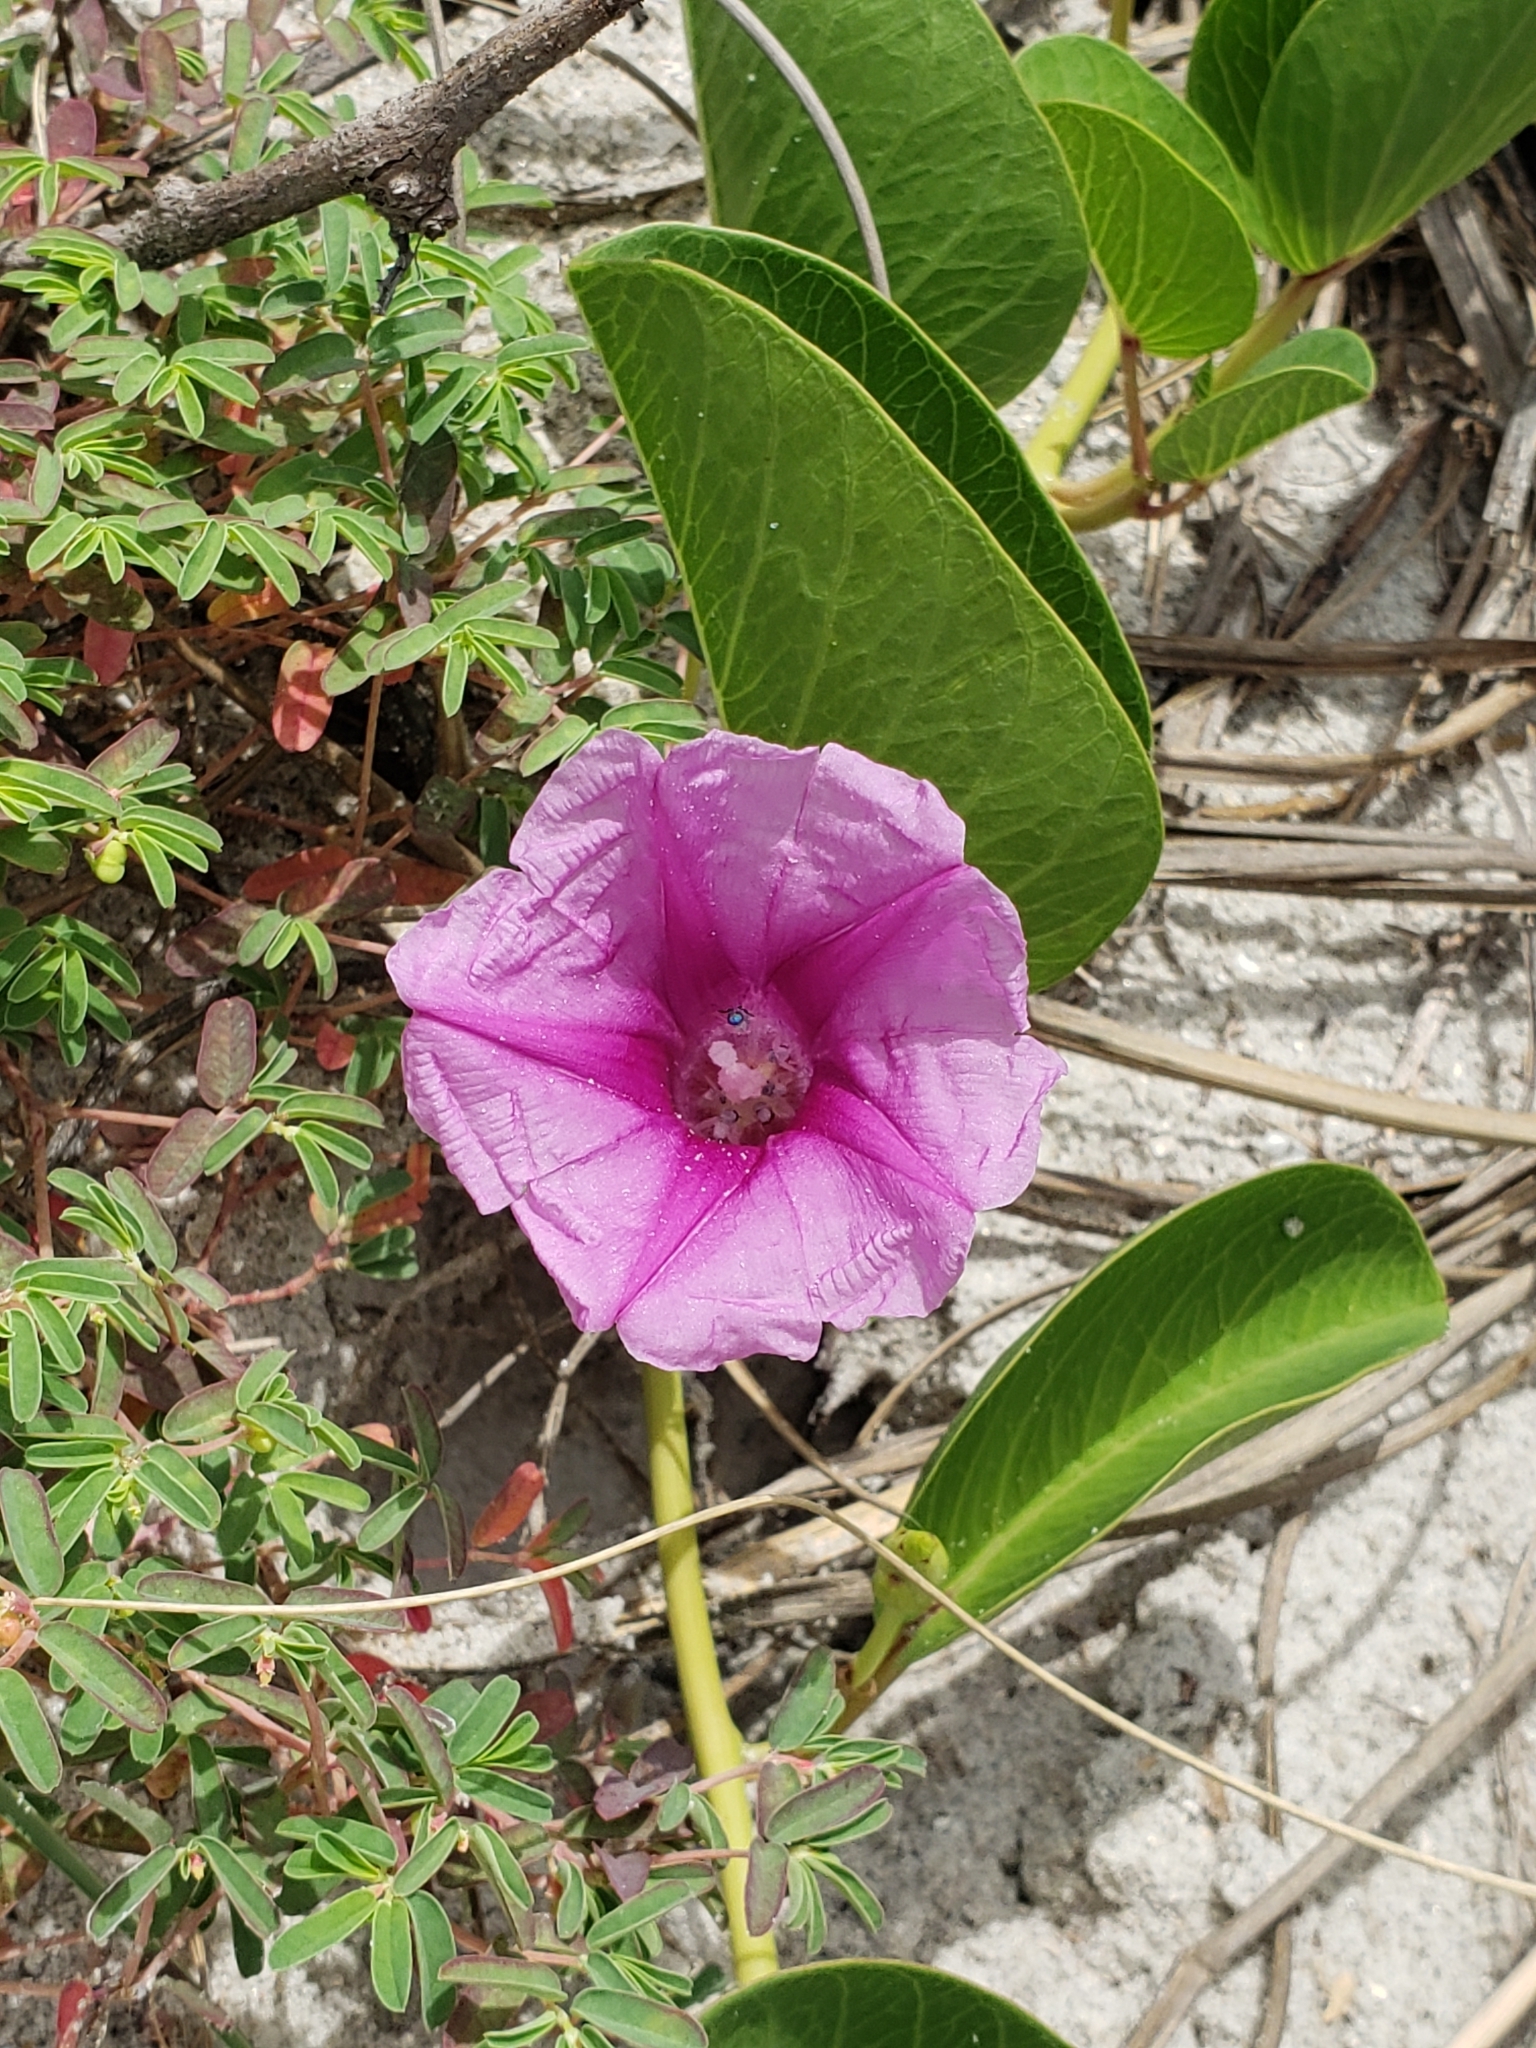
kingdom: Plantae
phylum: Tracheophyta
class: Magnoliopsida
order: Solanales
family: Convolvulaceae
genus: Ipomoea
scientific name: Ipomoea pes-caprae
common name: Beach morning glory
